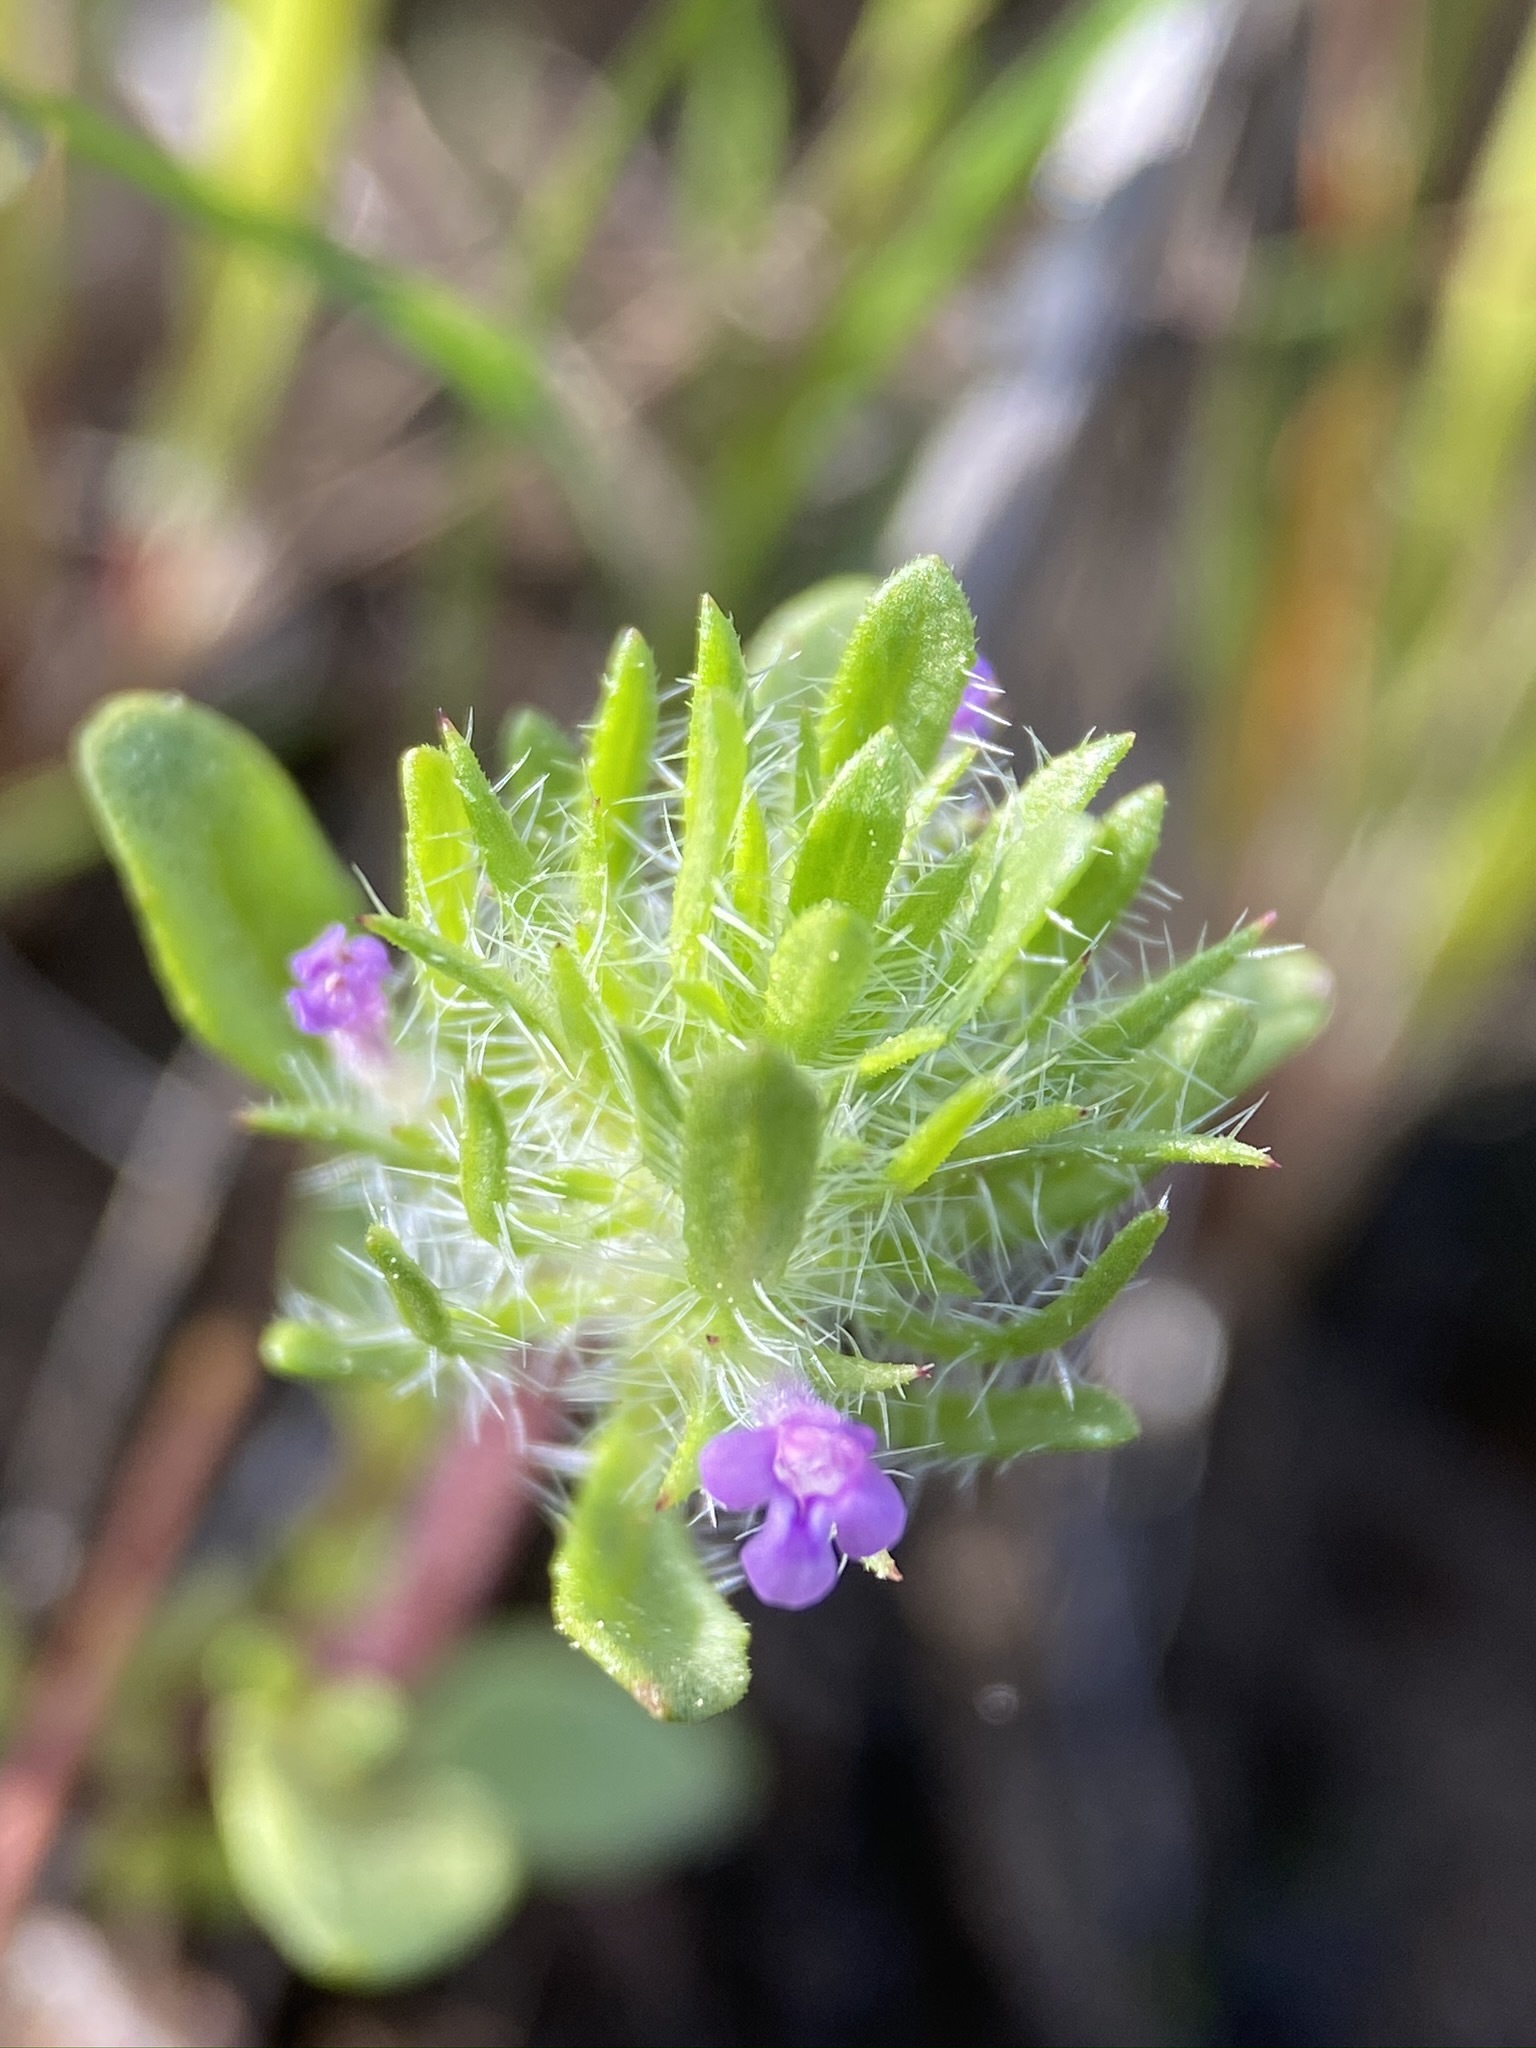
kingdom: Plantae
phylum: Tracheophyta
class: Magnoliopsida
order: Lamiales
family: Lamiaceae
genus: Pogogyne
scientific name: Pogogyne zizyphoroides
